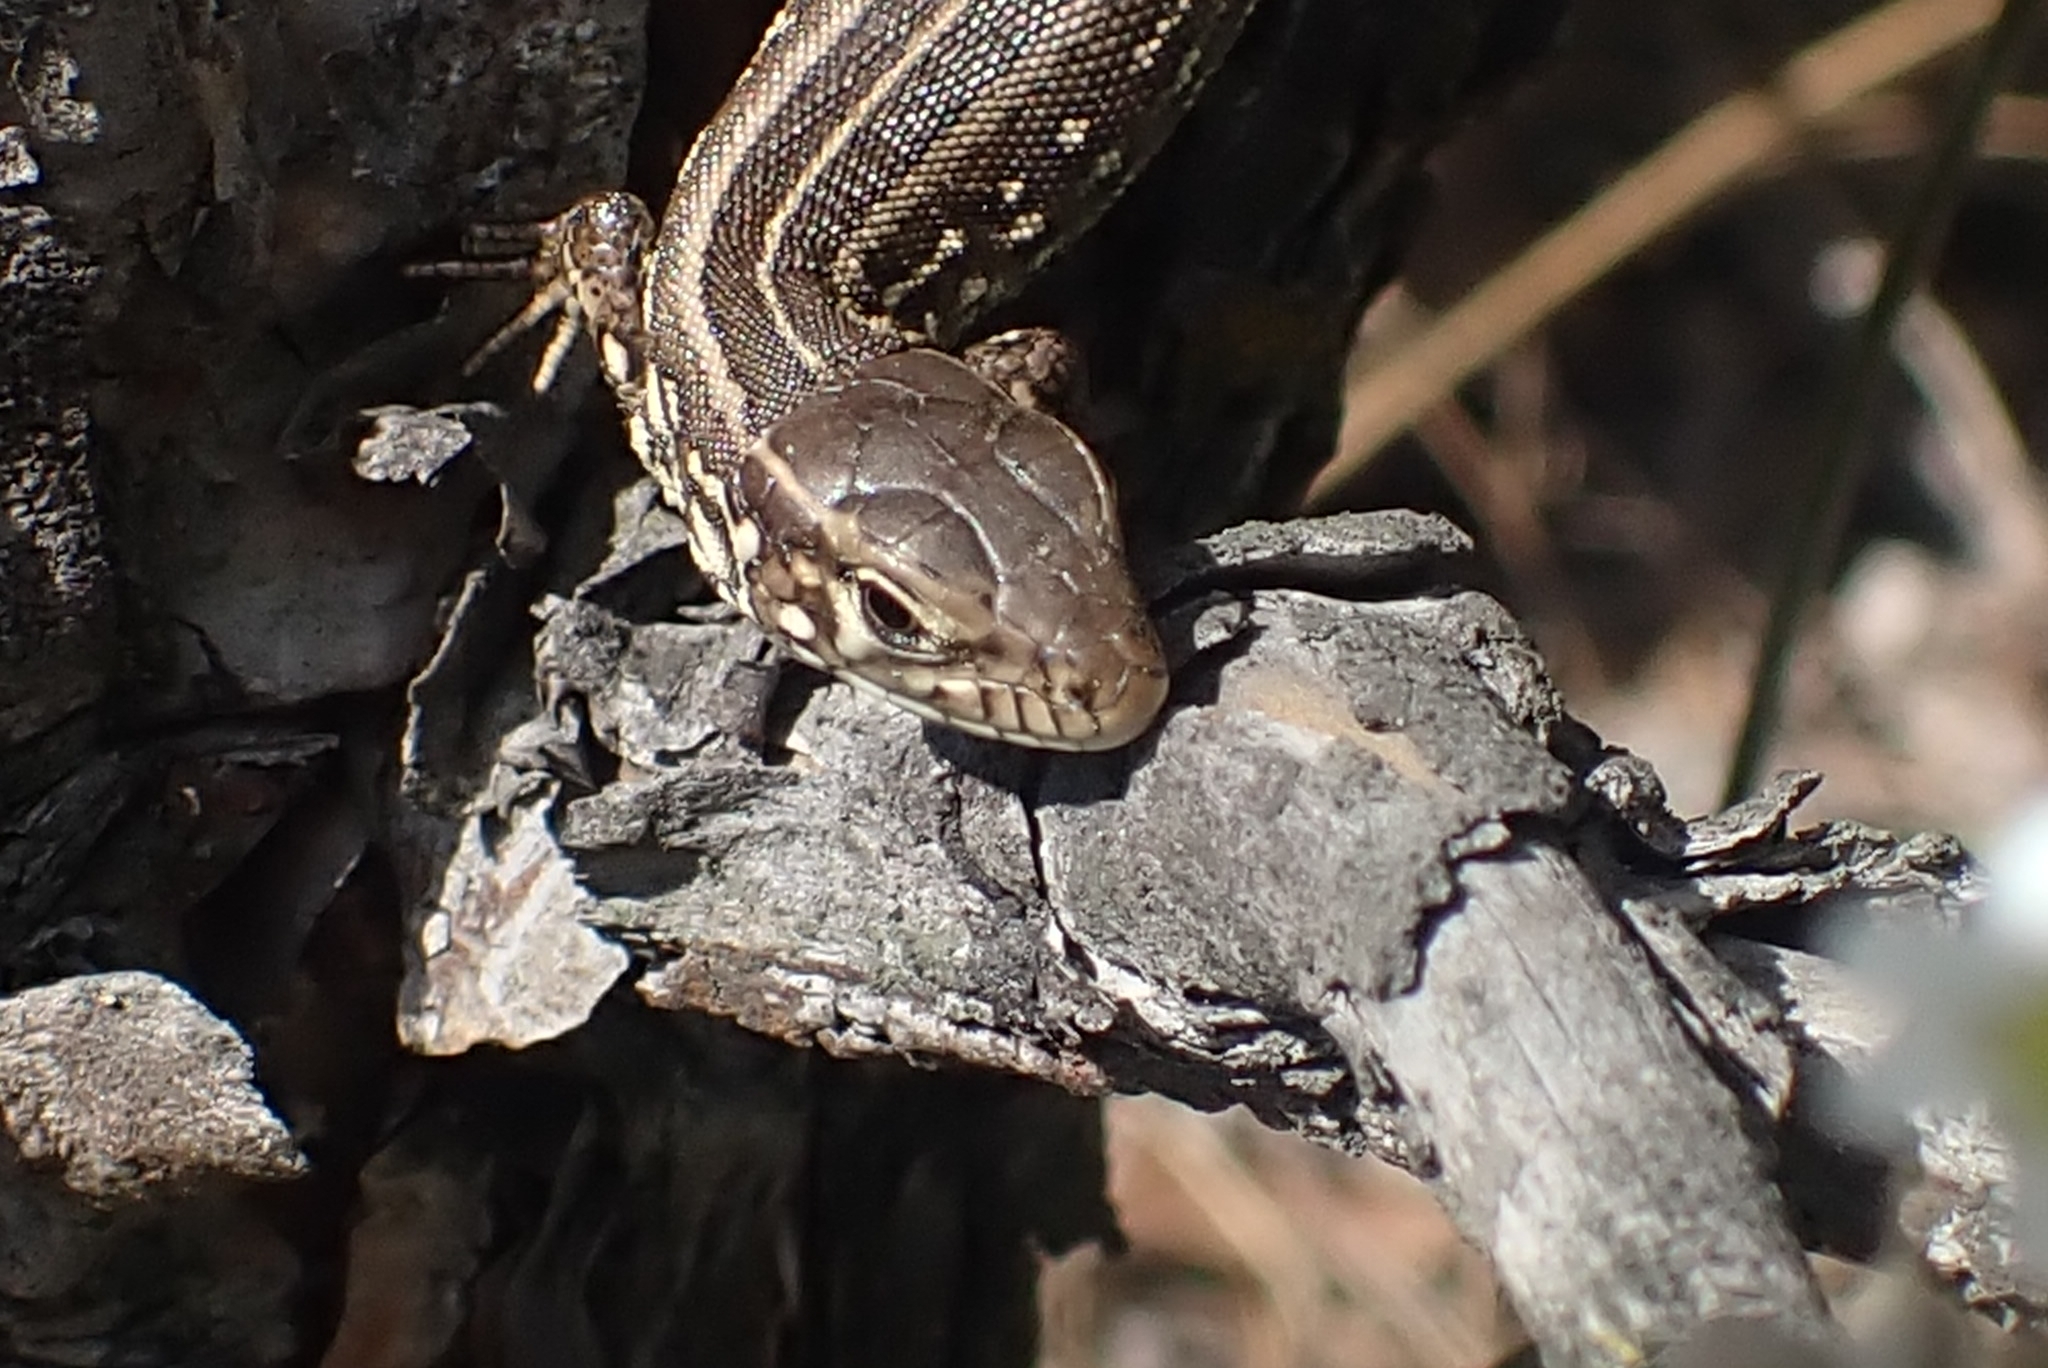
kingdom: Animalia
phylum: Chordata
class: Squamata
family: Lacertidae
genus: Lacerta
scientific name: Lacerta agilis
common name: Sand lizard
